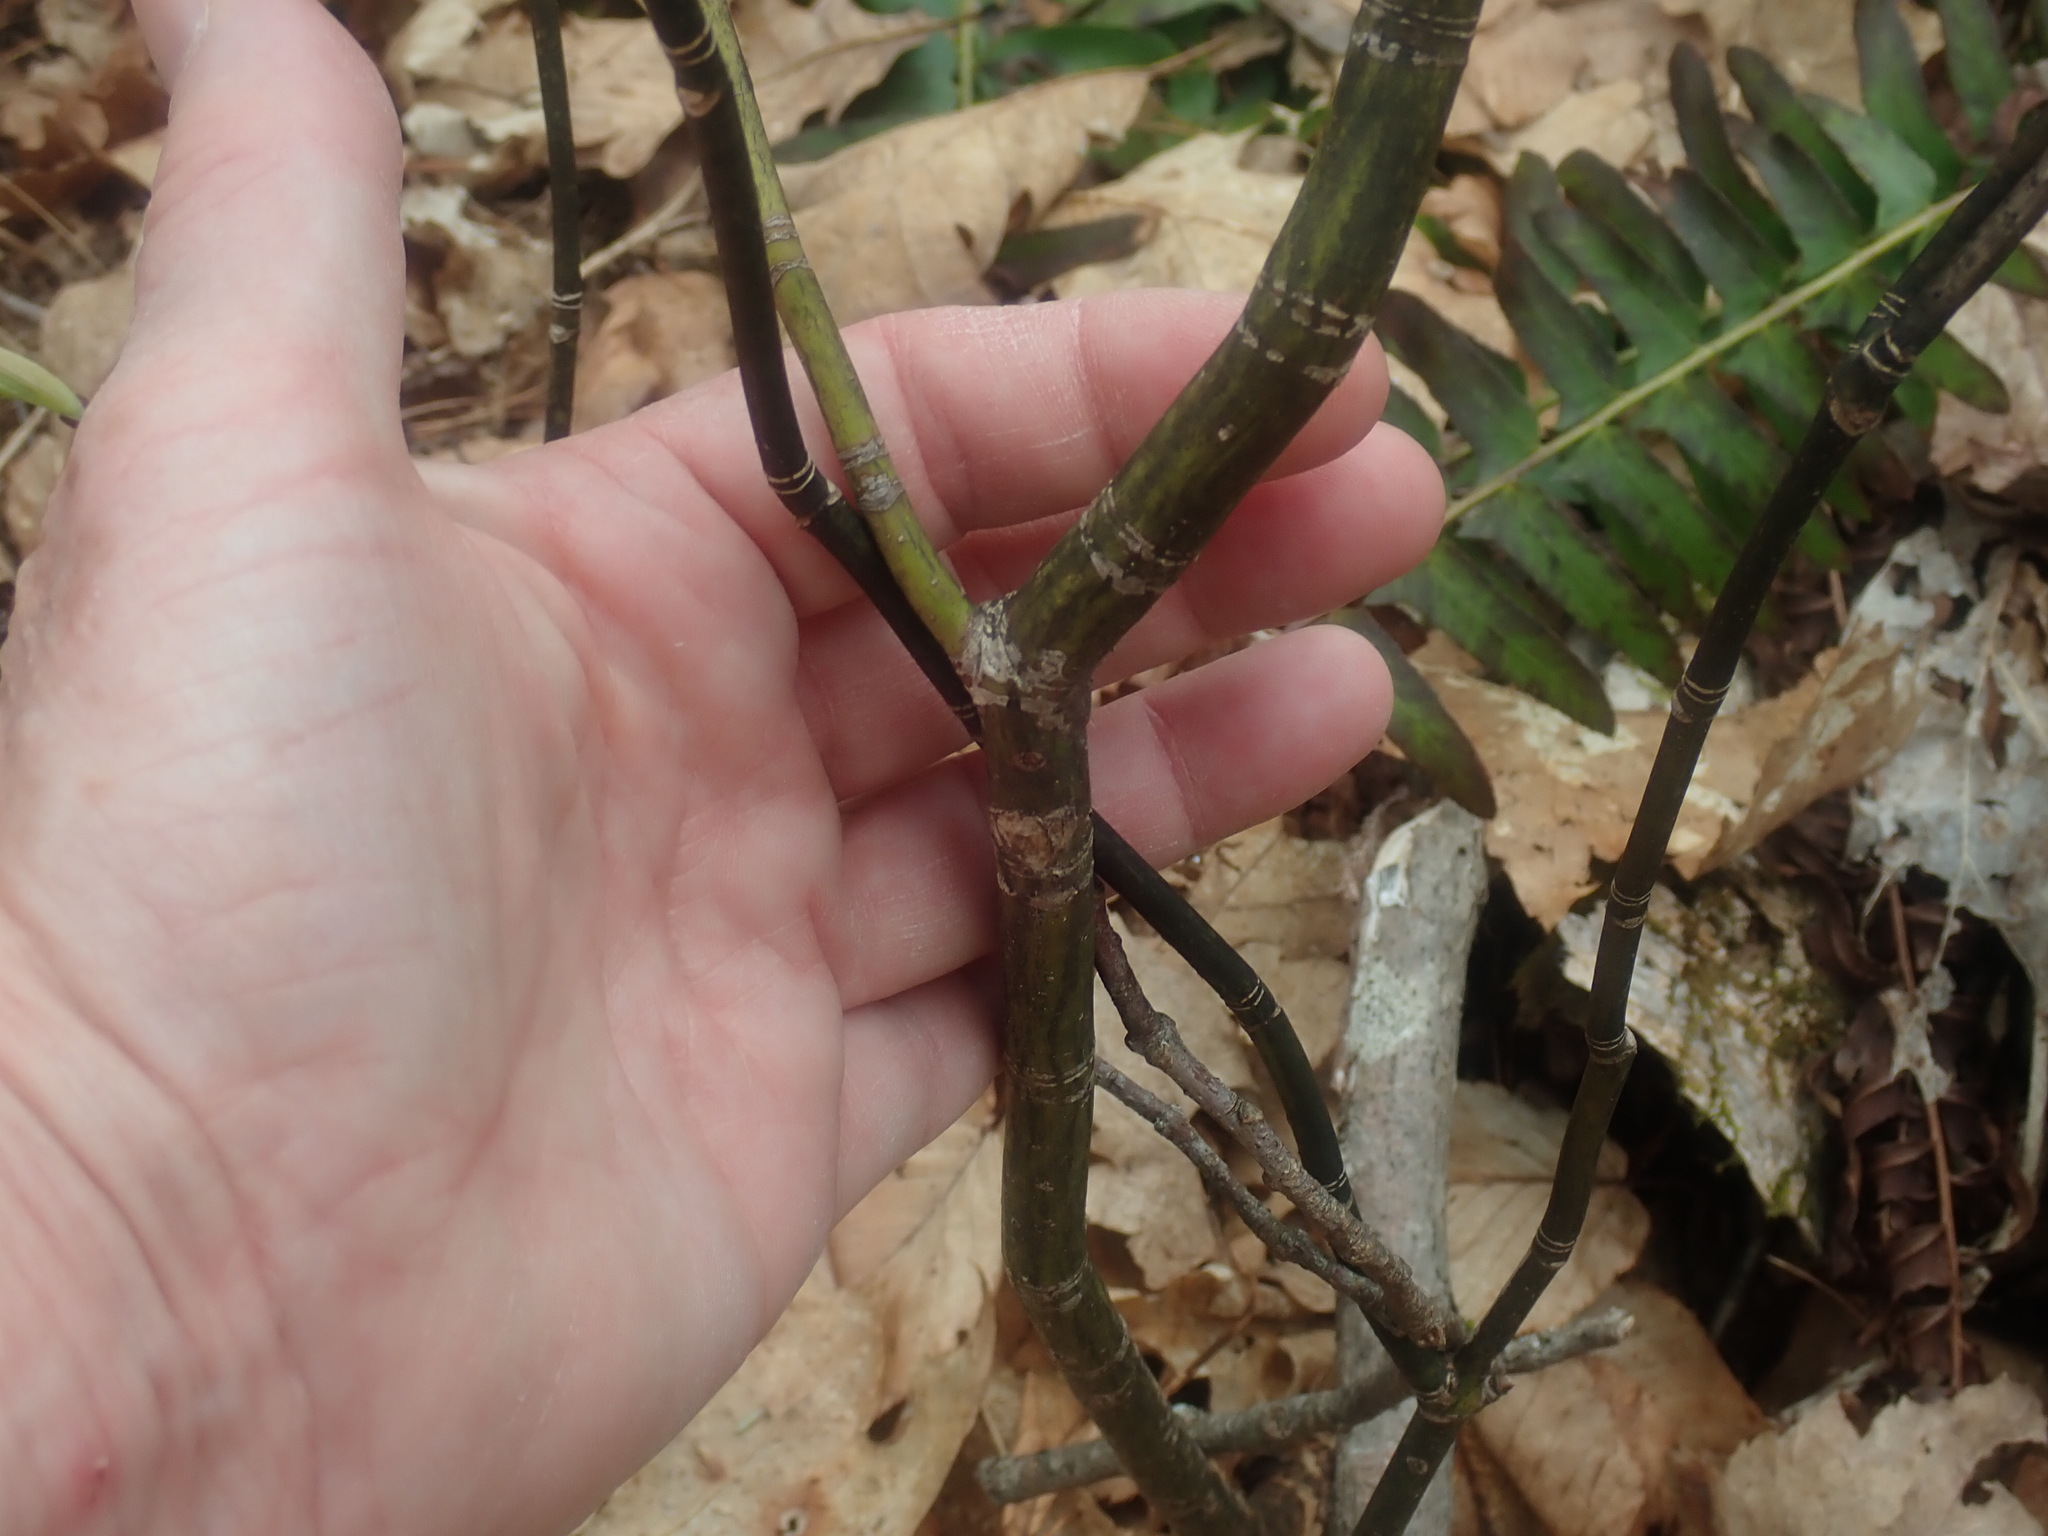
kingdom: Plantae
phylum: Tracheophyta
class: Magnoliopsida
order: Sapindales
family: Sapindaceae
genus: Acer
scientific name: Acer pensylvanicum
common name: Moosewood
